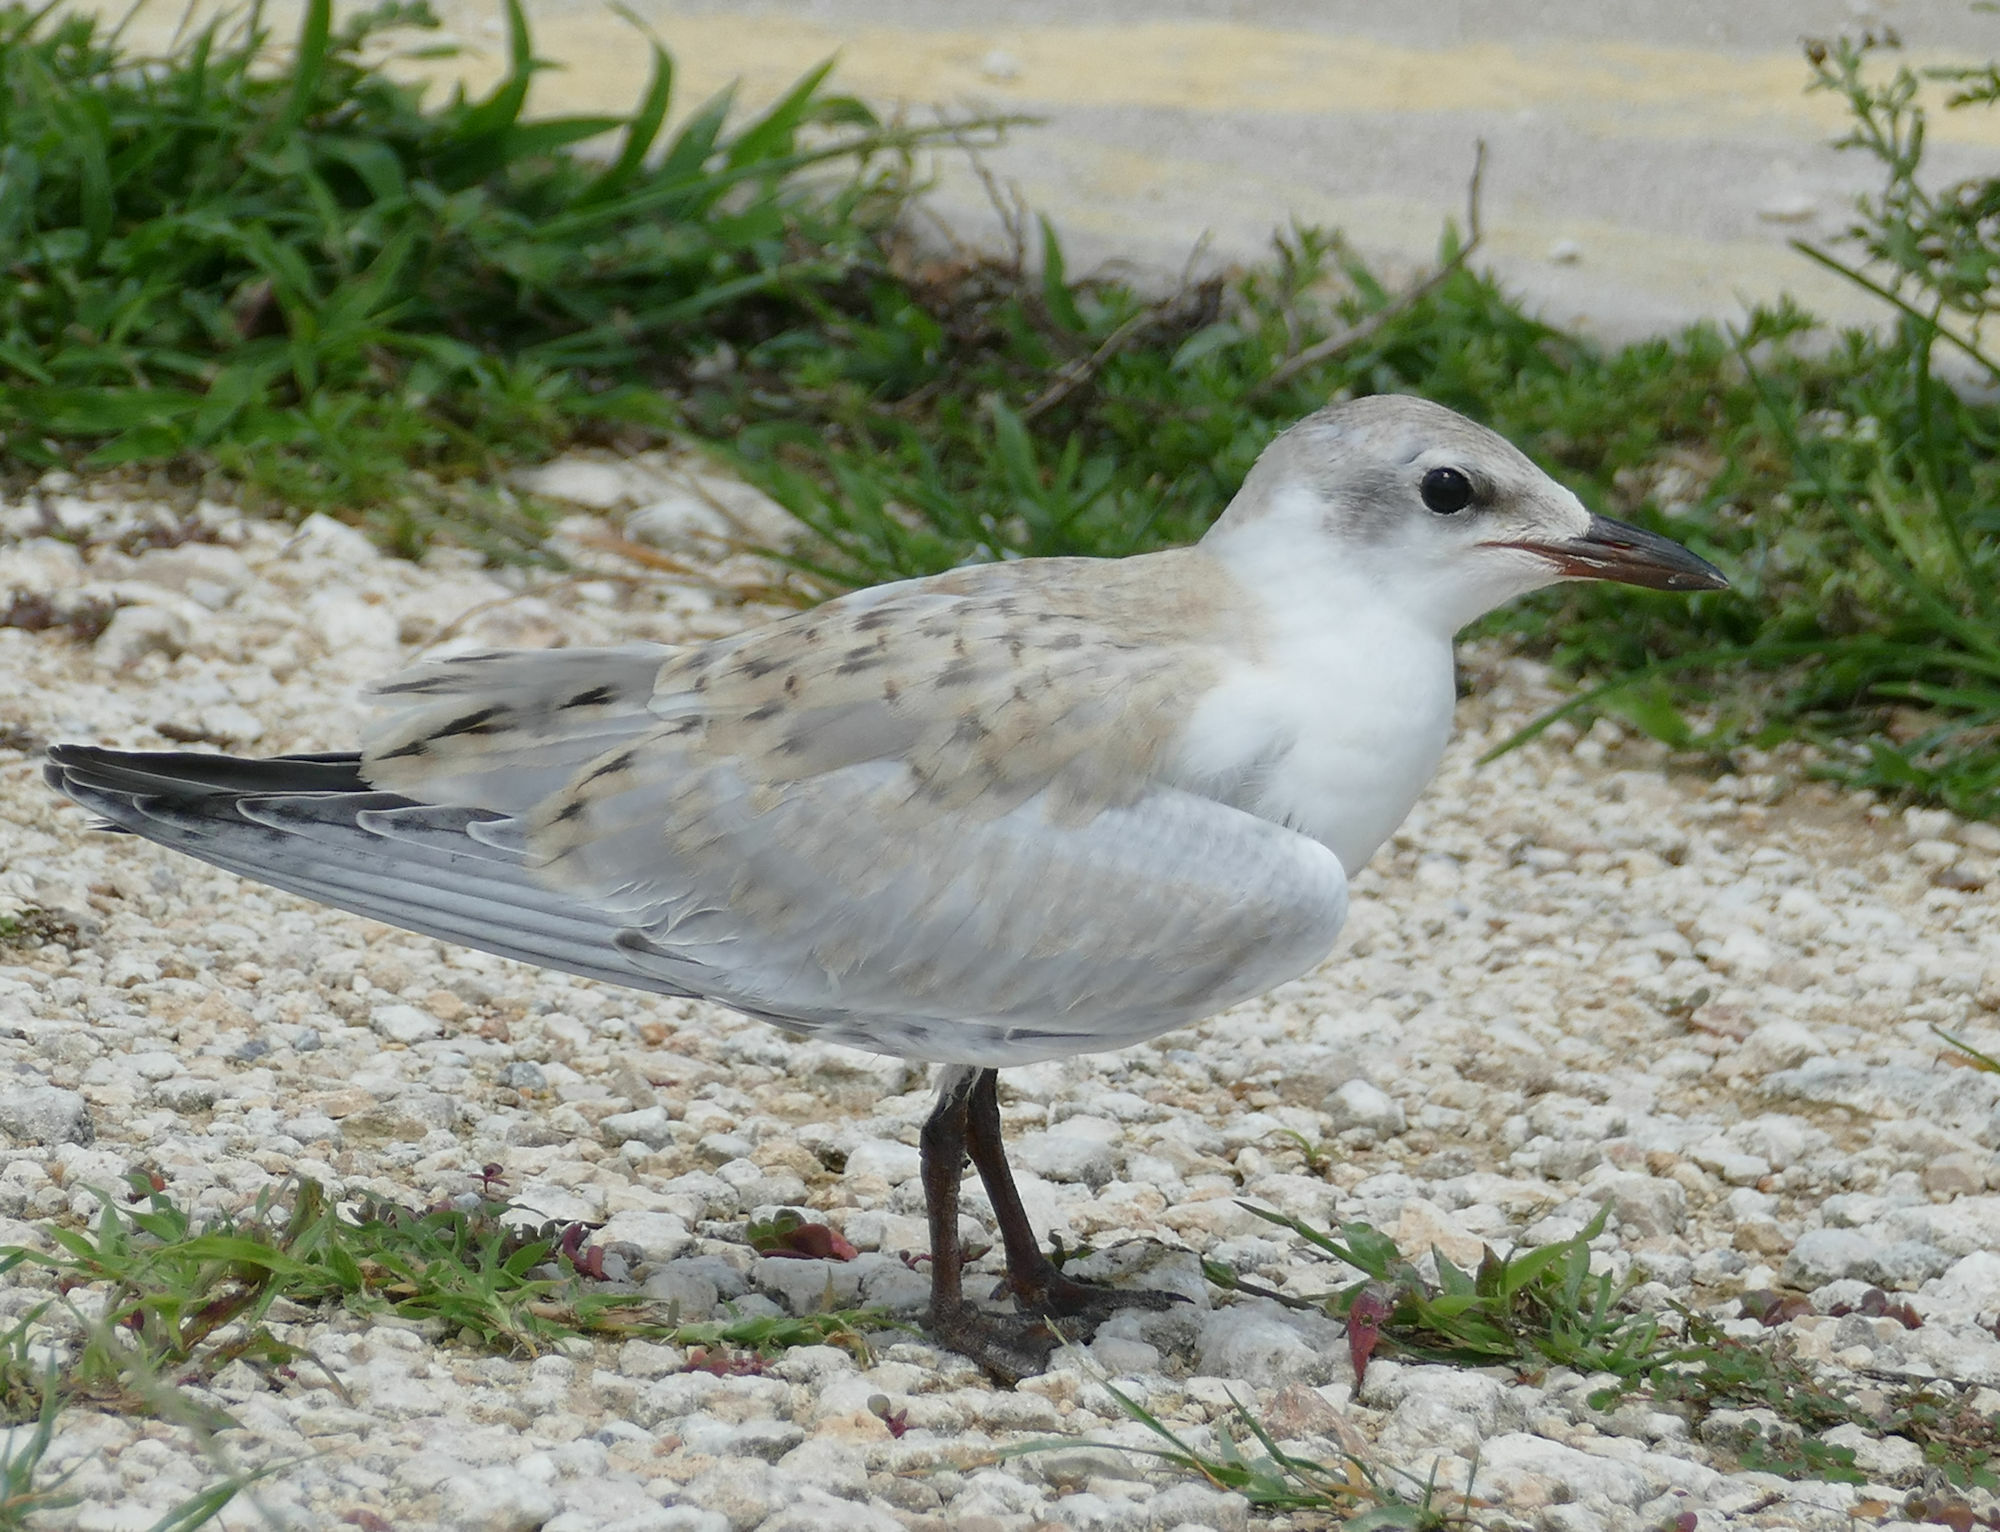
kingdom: Animalia
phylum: Chordata
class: Aves
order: Charadriiformes
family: Laridae
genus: Gelochelidon
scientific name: Gelochelidon nilotica
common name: Gull-billed tern
